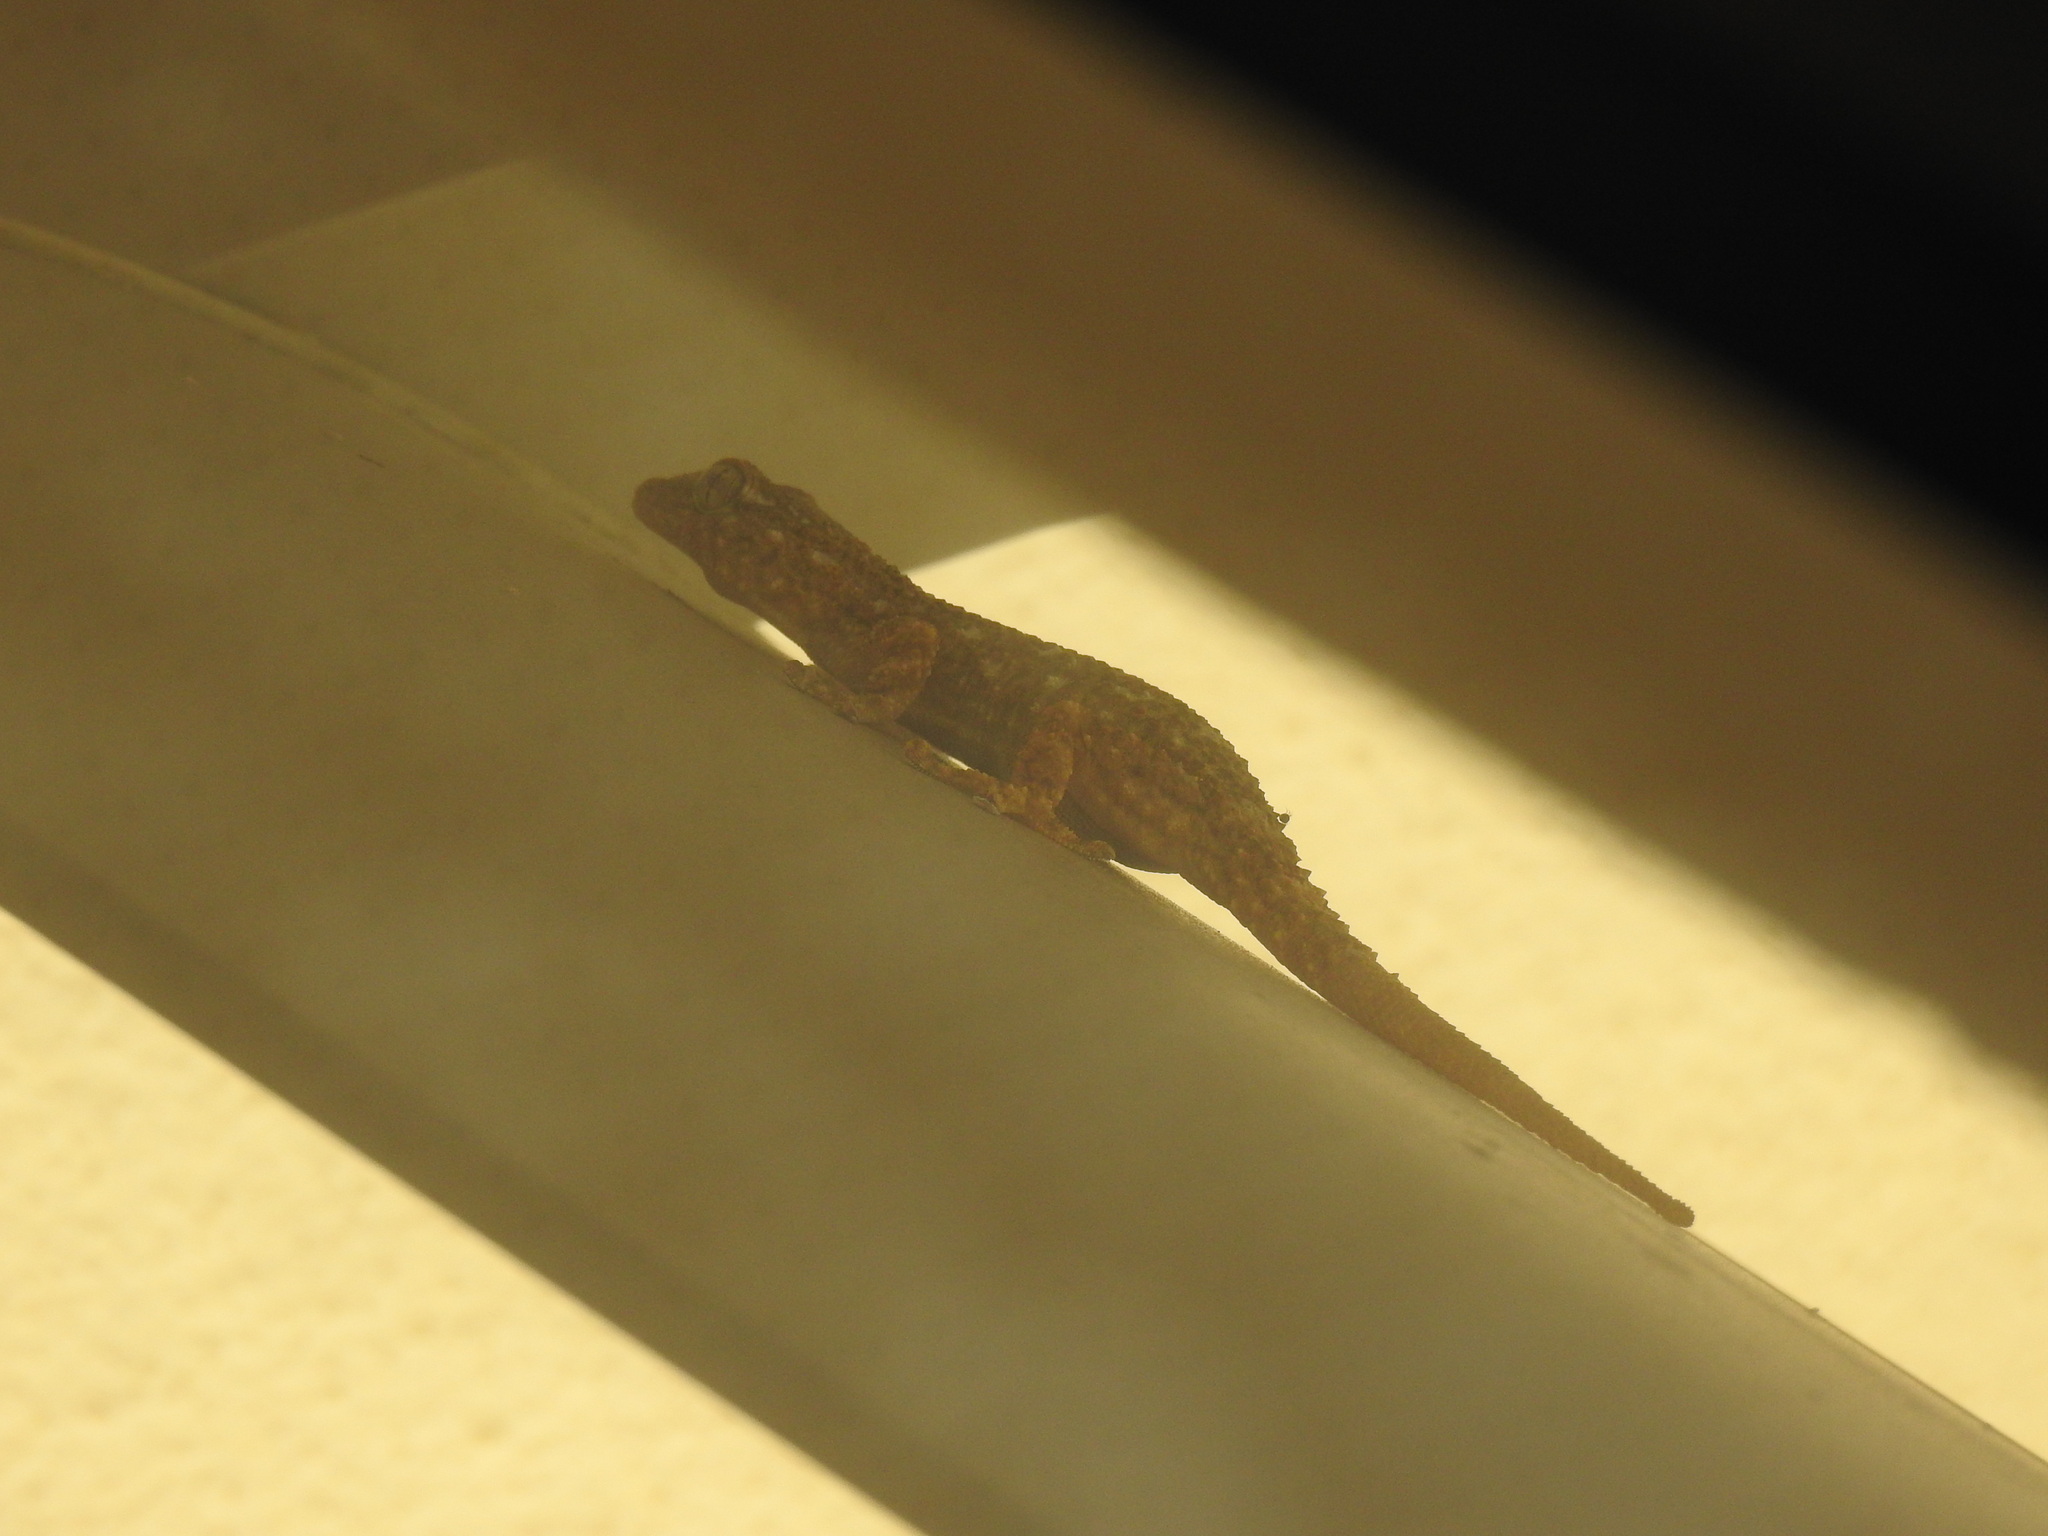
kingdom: Animalia
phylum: Chordata
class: Squamata
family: Phyllodactylidae
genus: Tarentola
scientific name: Tarentola mauritanica
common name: Moorish gecko
